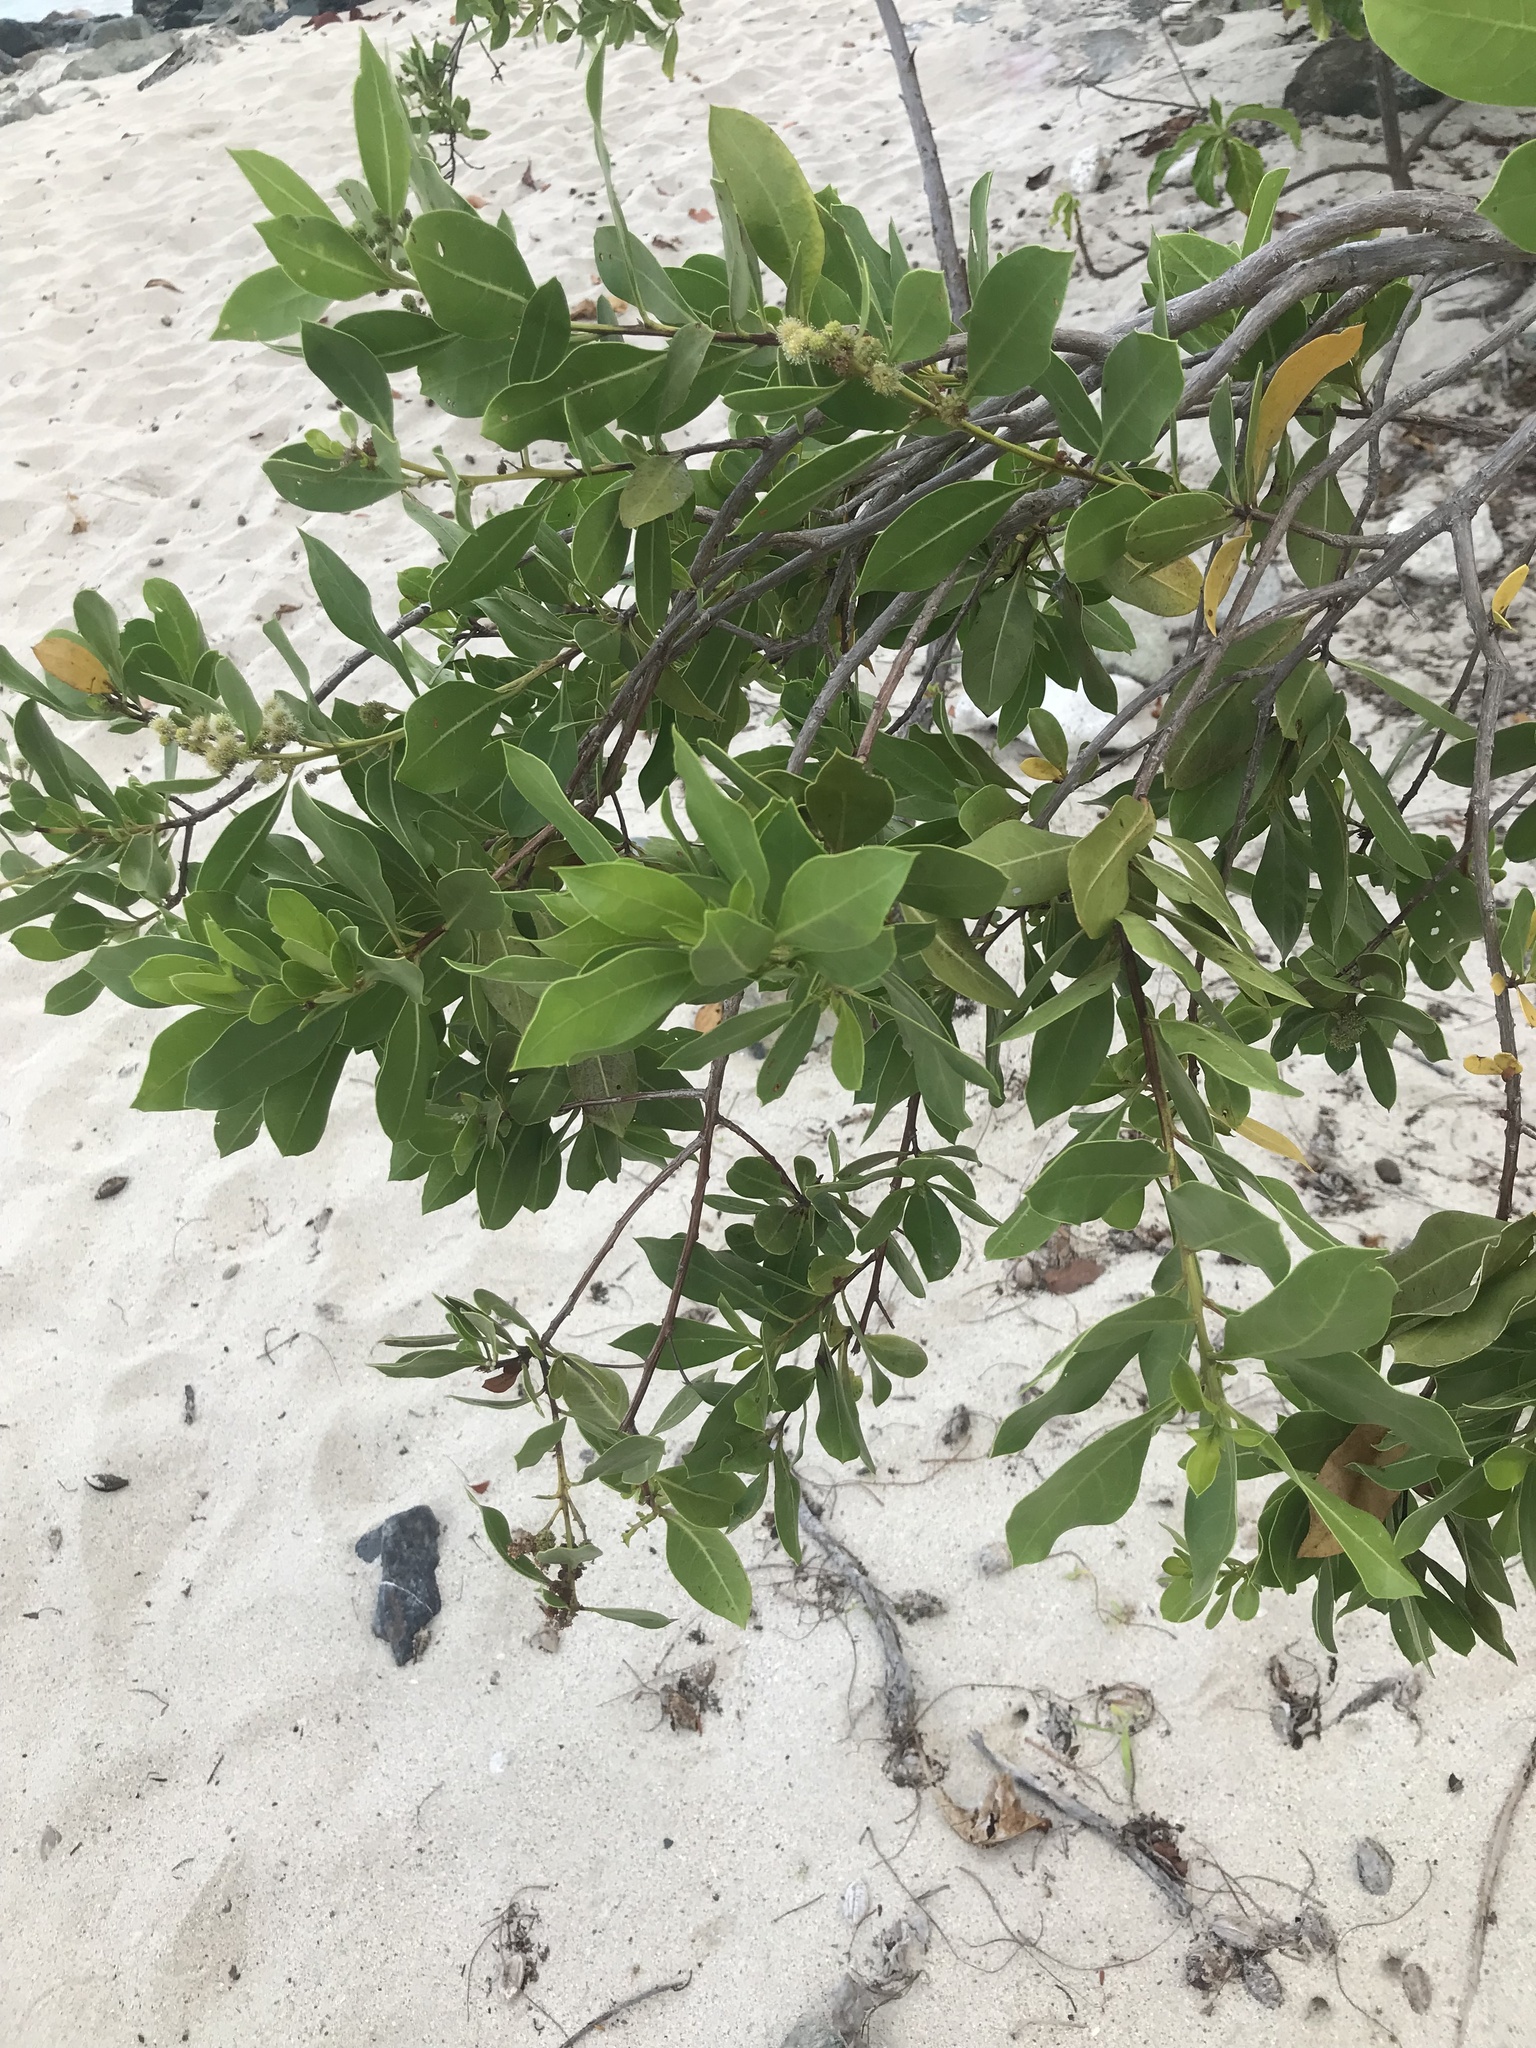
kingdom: Plantae
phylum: Tracheophyta
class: Magnoliopsida
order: Myrtales
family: Combretaceae
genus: Conocarpus
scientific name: Conocarpus erectus
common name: Button mangrove
